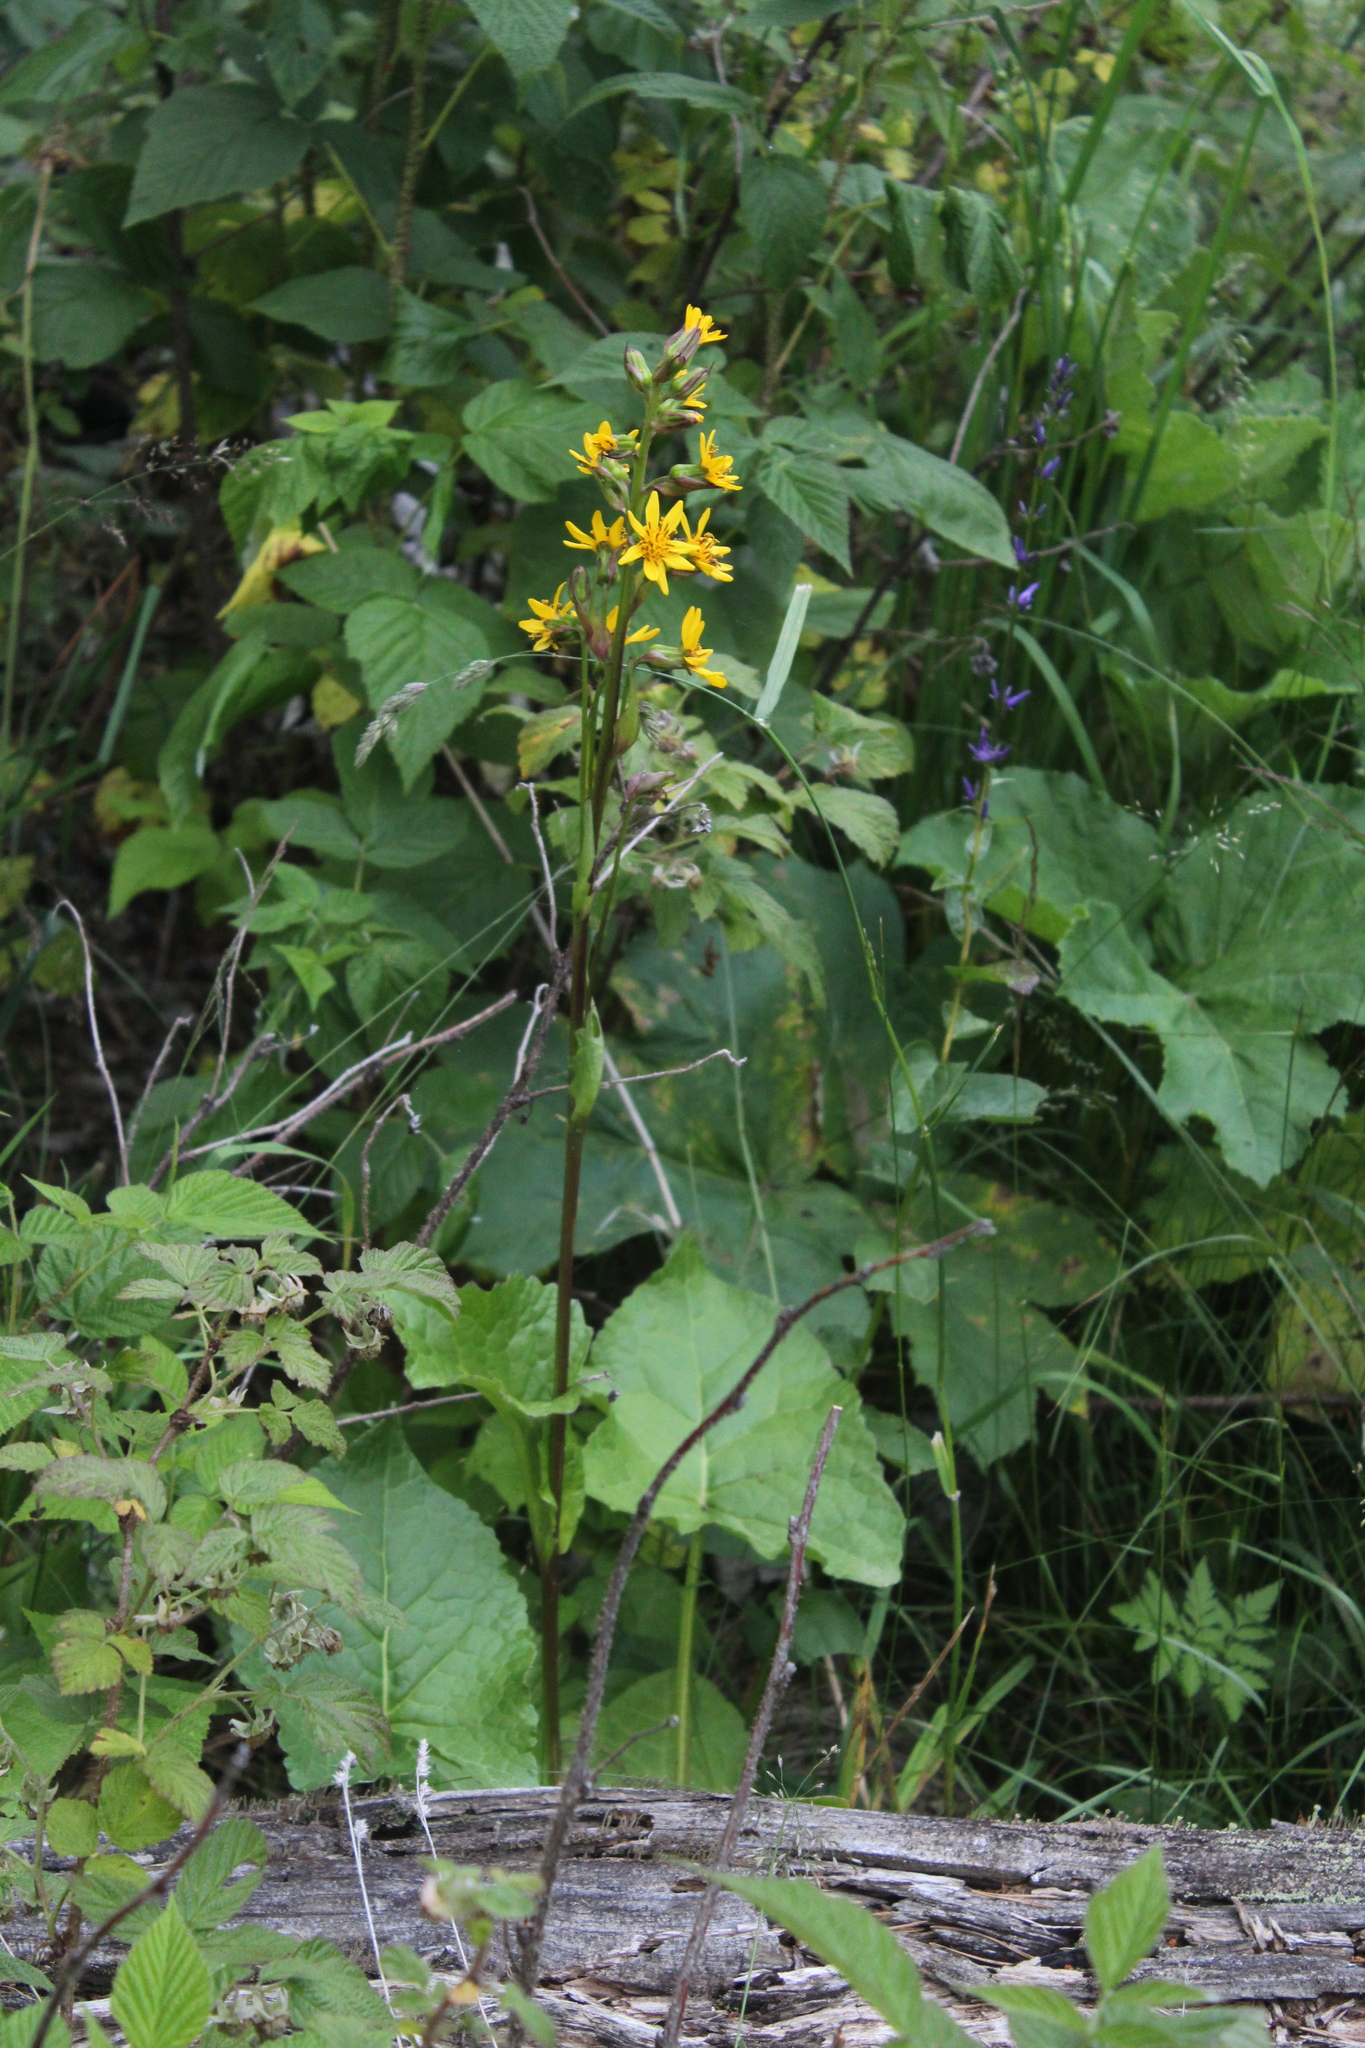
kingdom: Plantae
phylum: Tracheophyta
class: Magnoliopsida
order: Asterales
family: Asteraceae
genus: Ligularia
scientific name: Ligularia subsagittata
